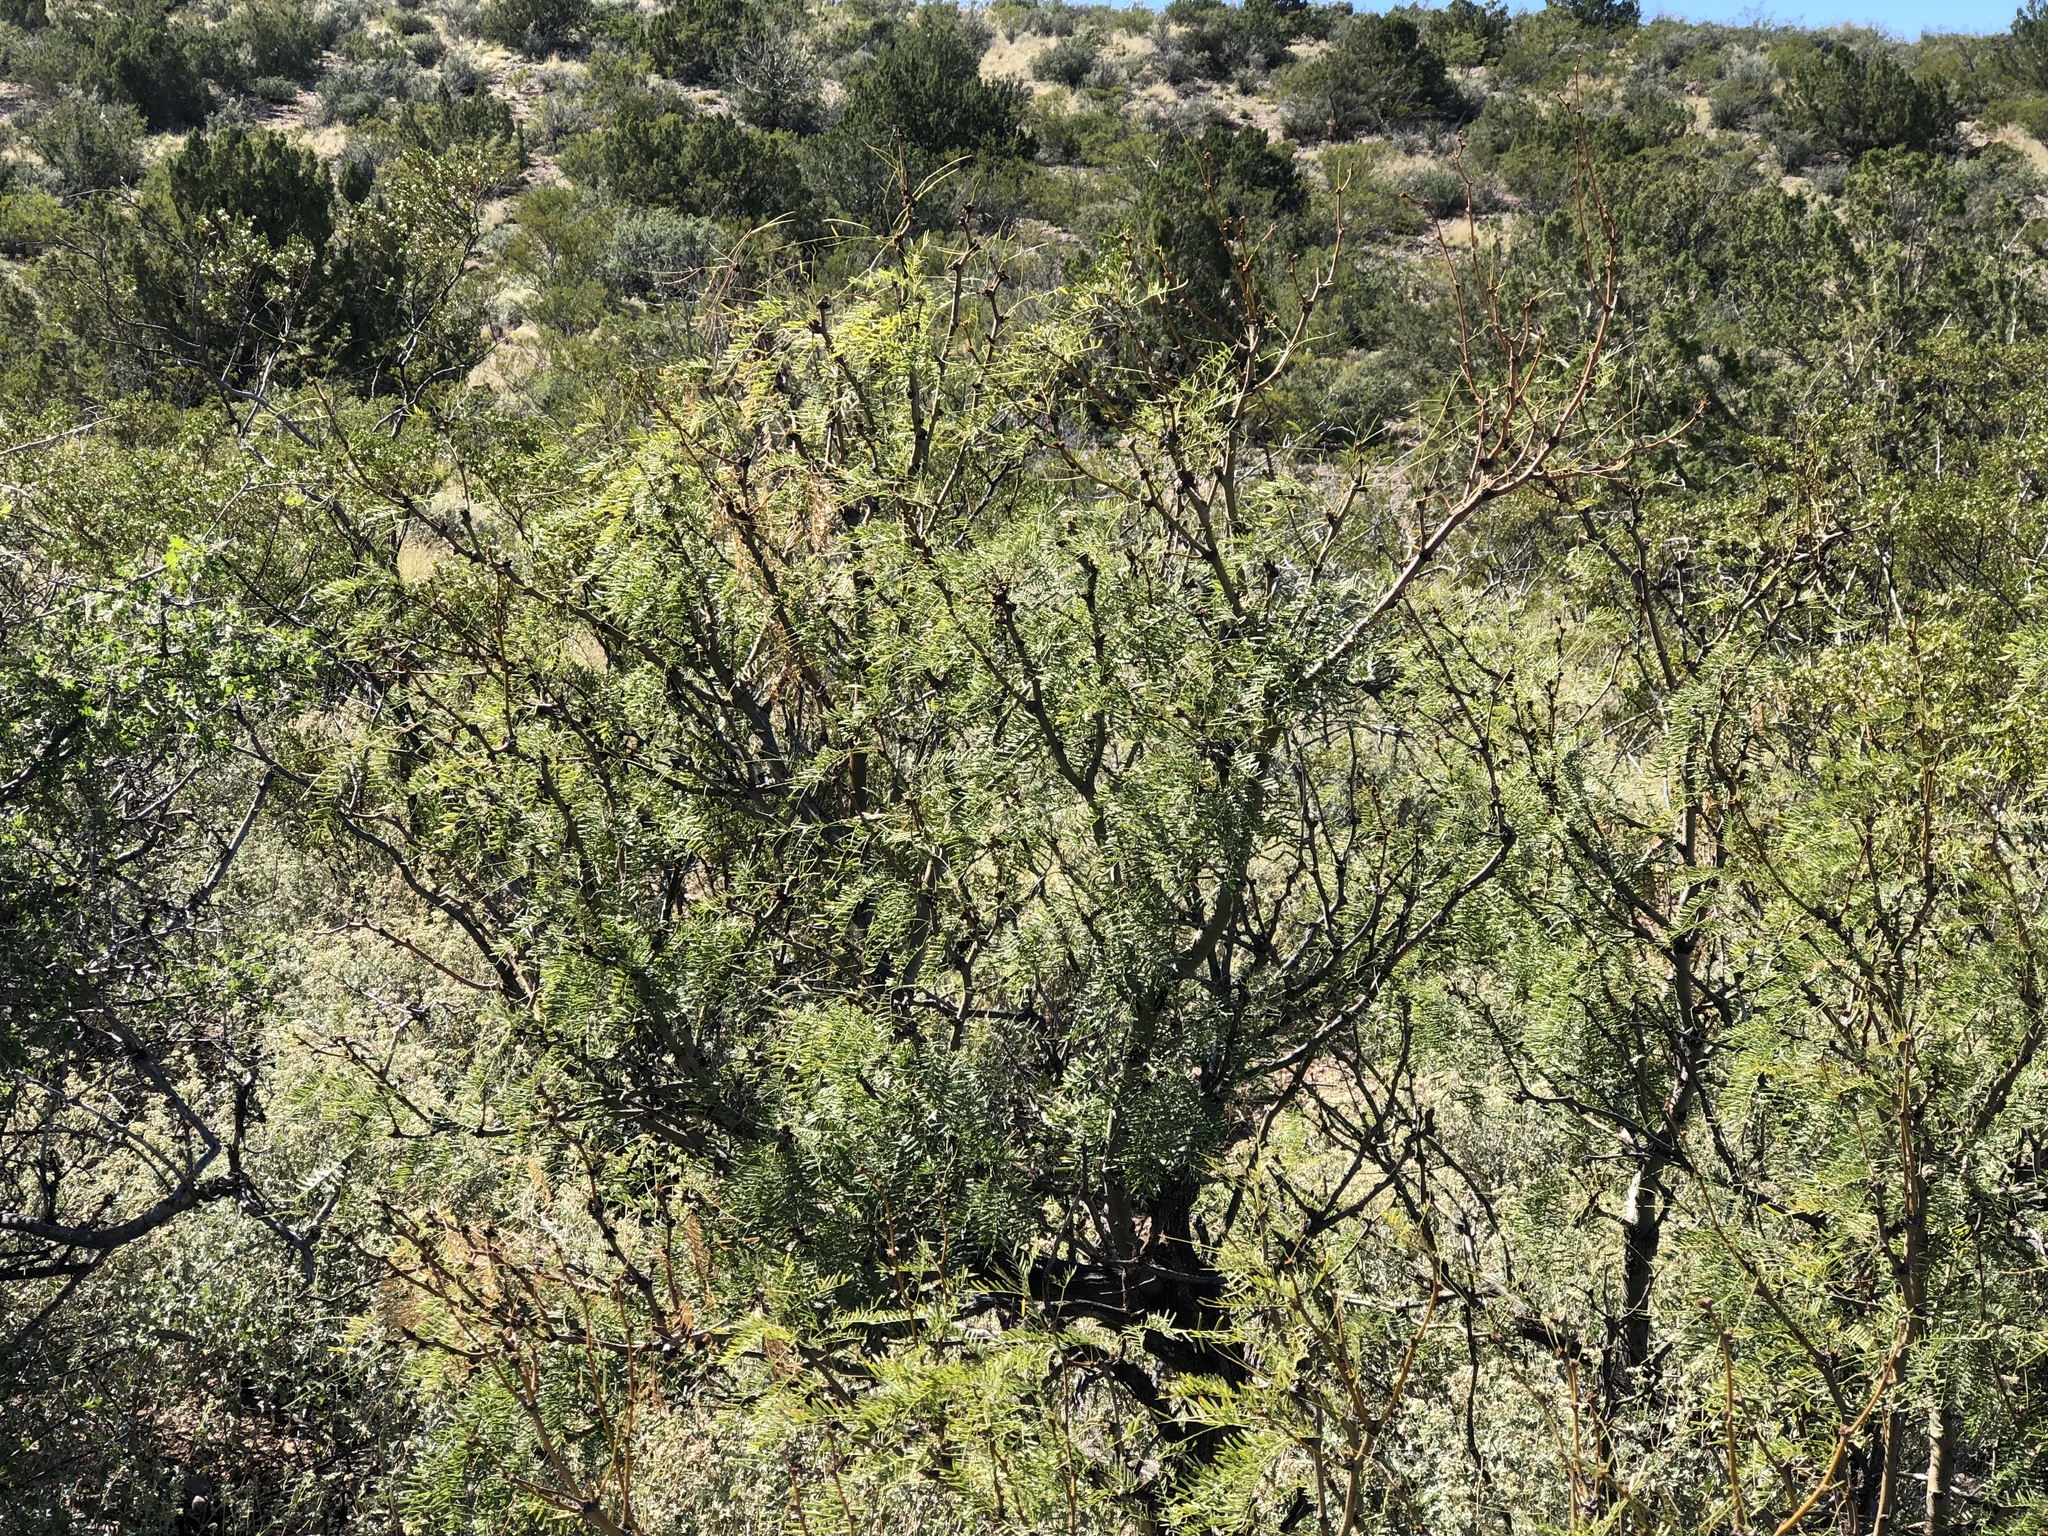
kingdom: Plantae
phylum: Tracheophyta
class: Magnoliopsida
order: Fabales
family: Fabaceae
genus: Prosopis
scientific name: Prosopis glandulosa
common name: Honey mesquite
